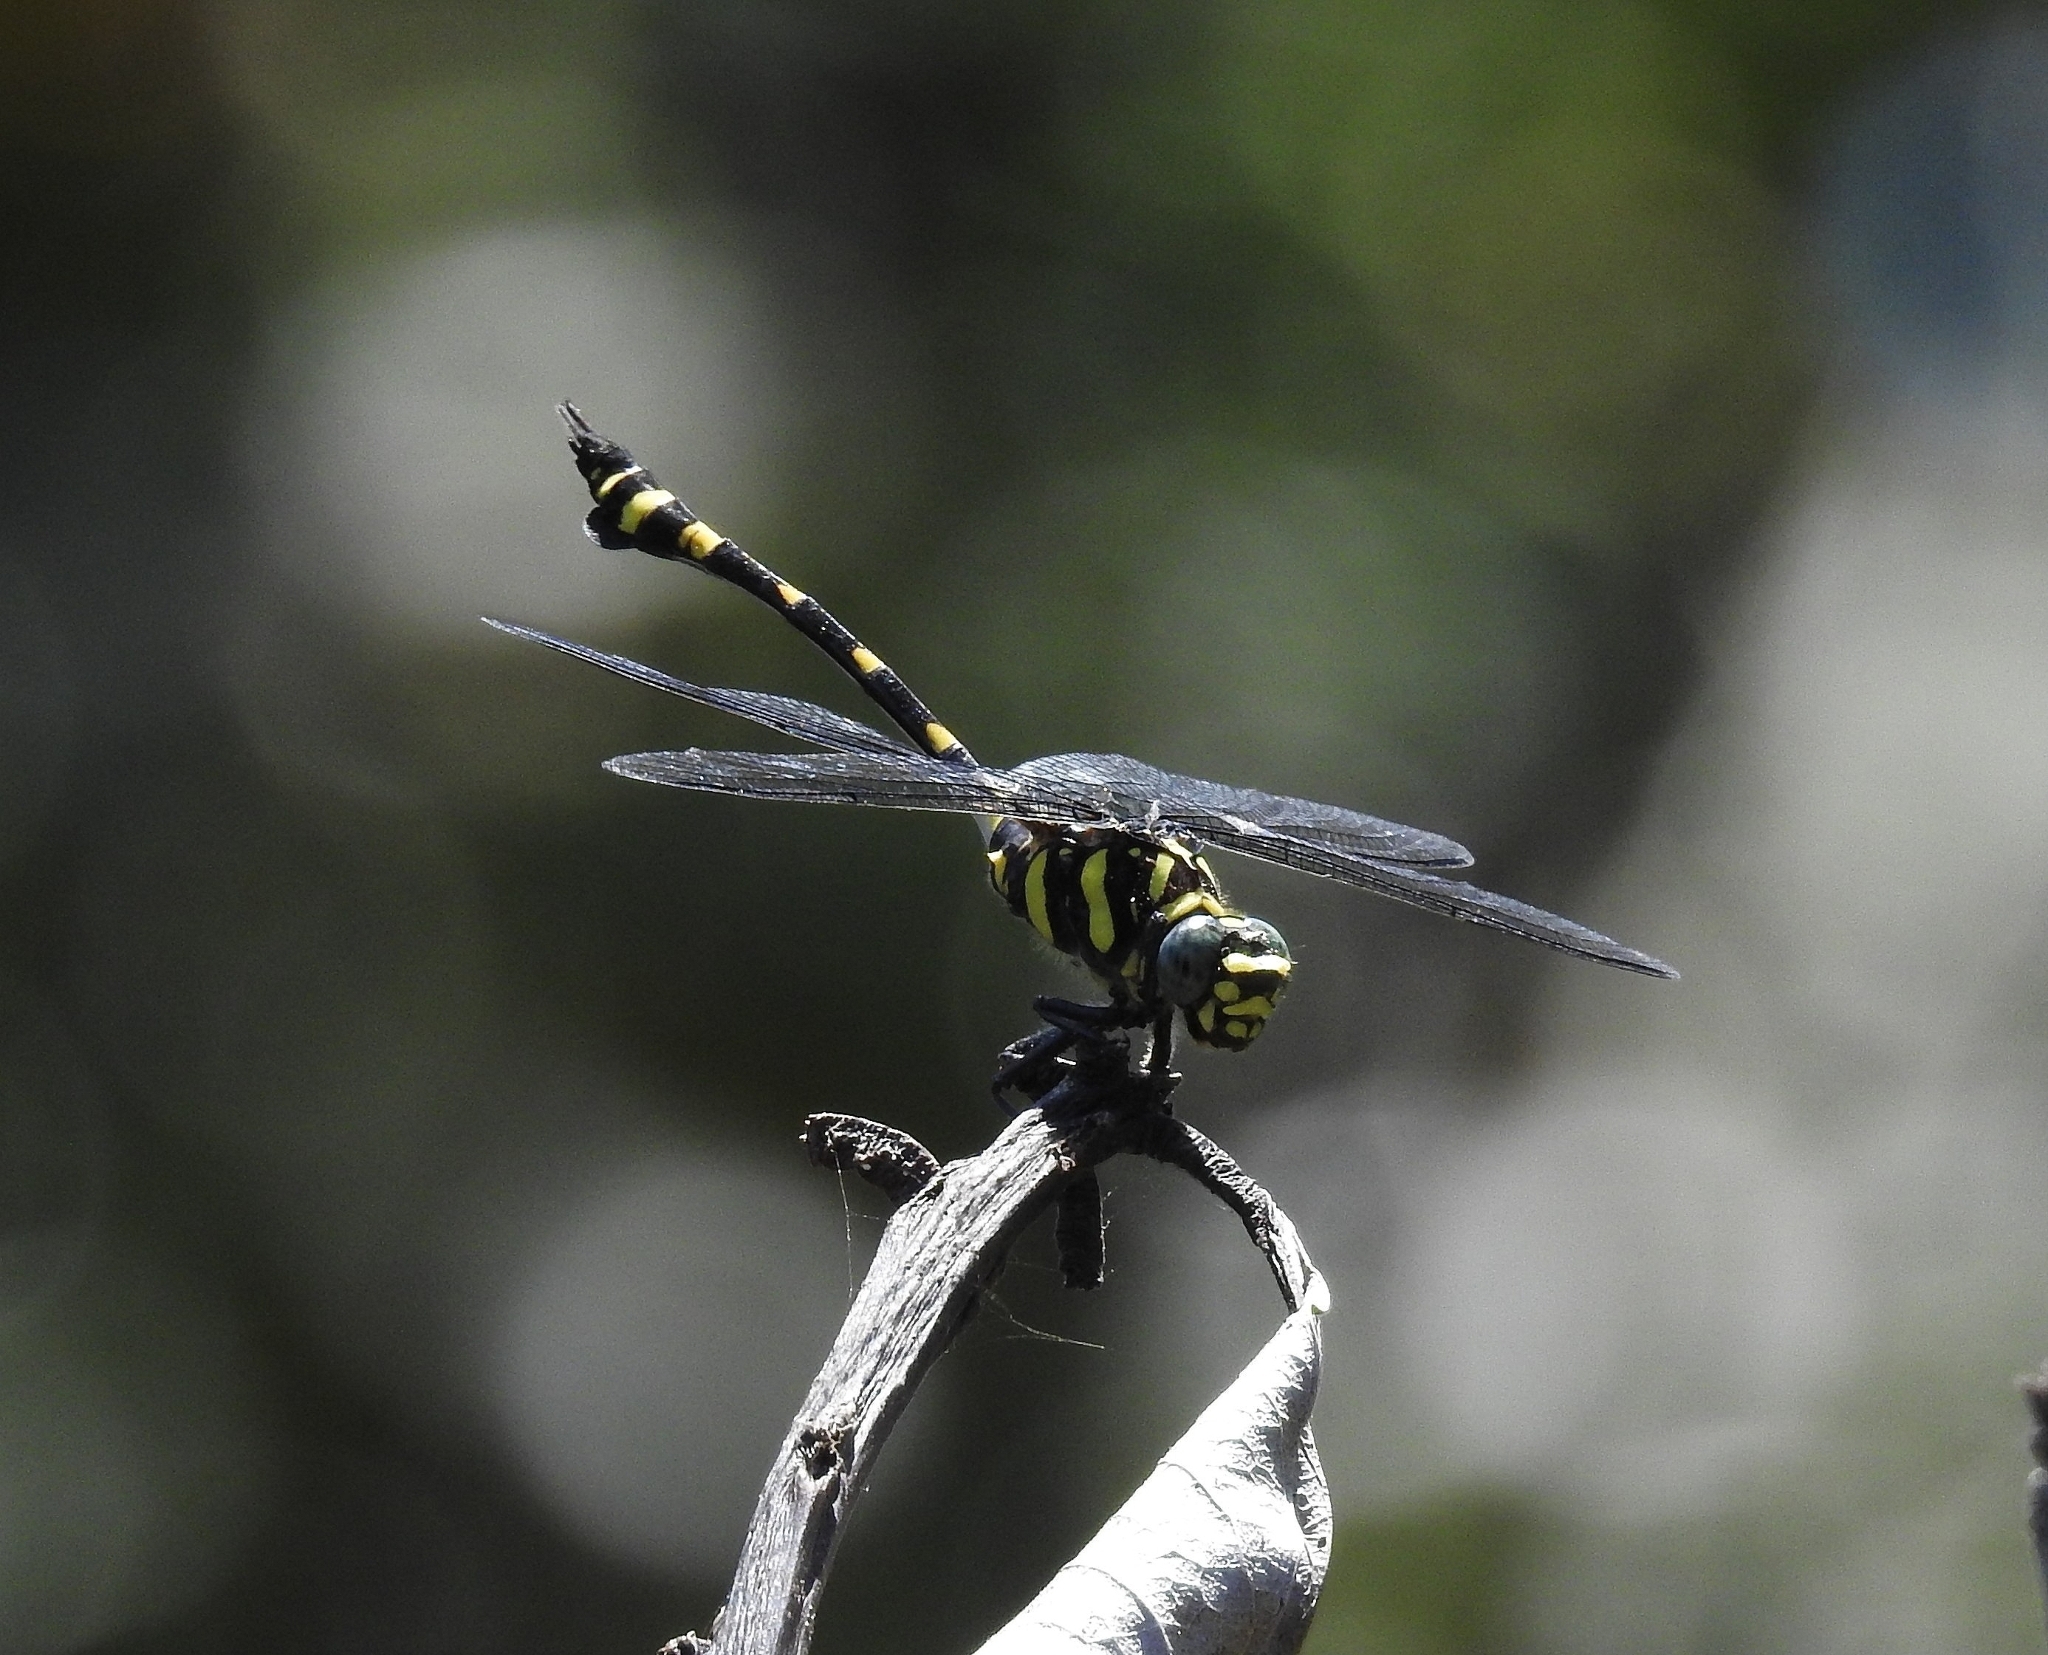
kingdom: Animalia
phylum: Arthropoda
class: Insecta
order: Odonata
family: Gomphidae
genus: Ictinogomphus
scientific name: Ictinogomphus rapax
